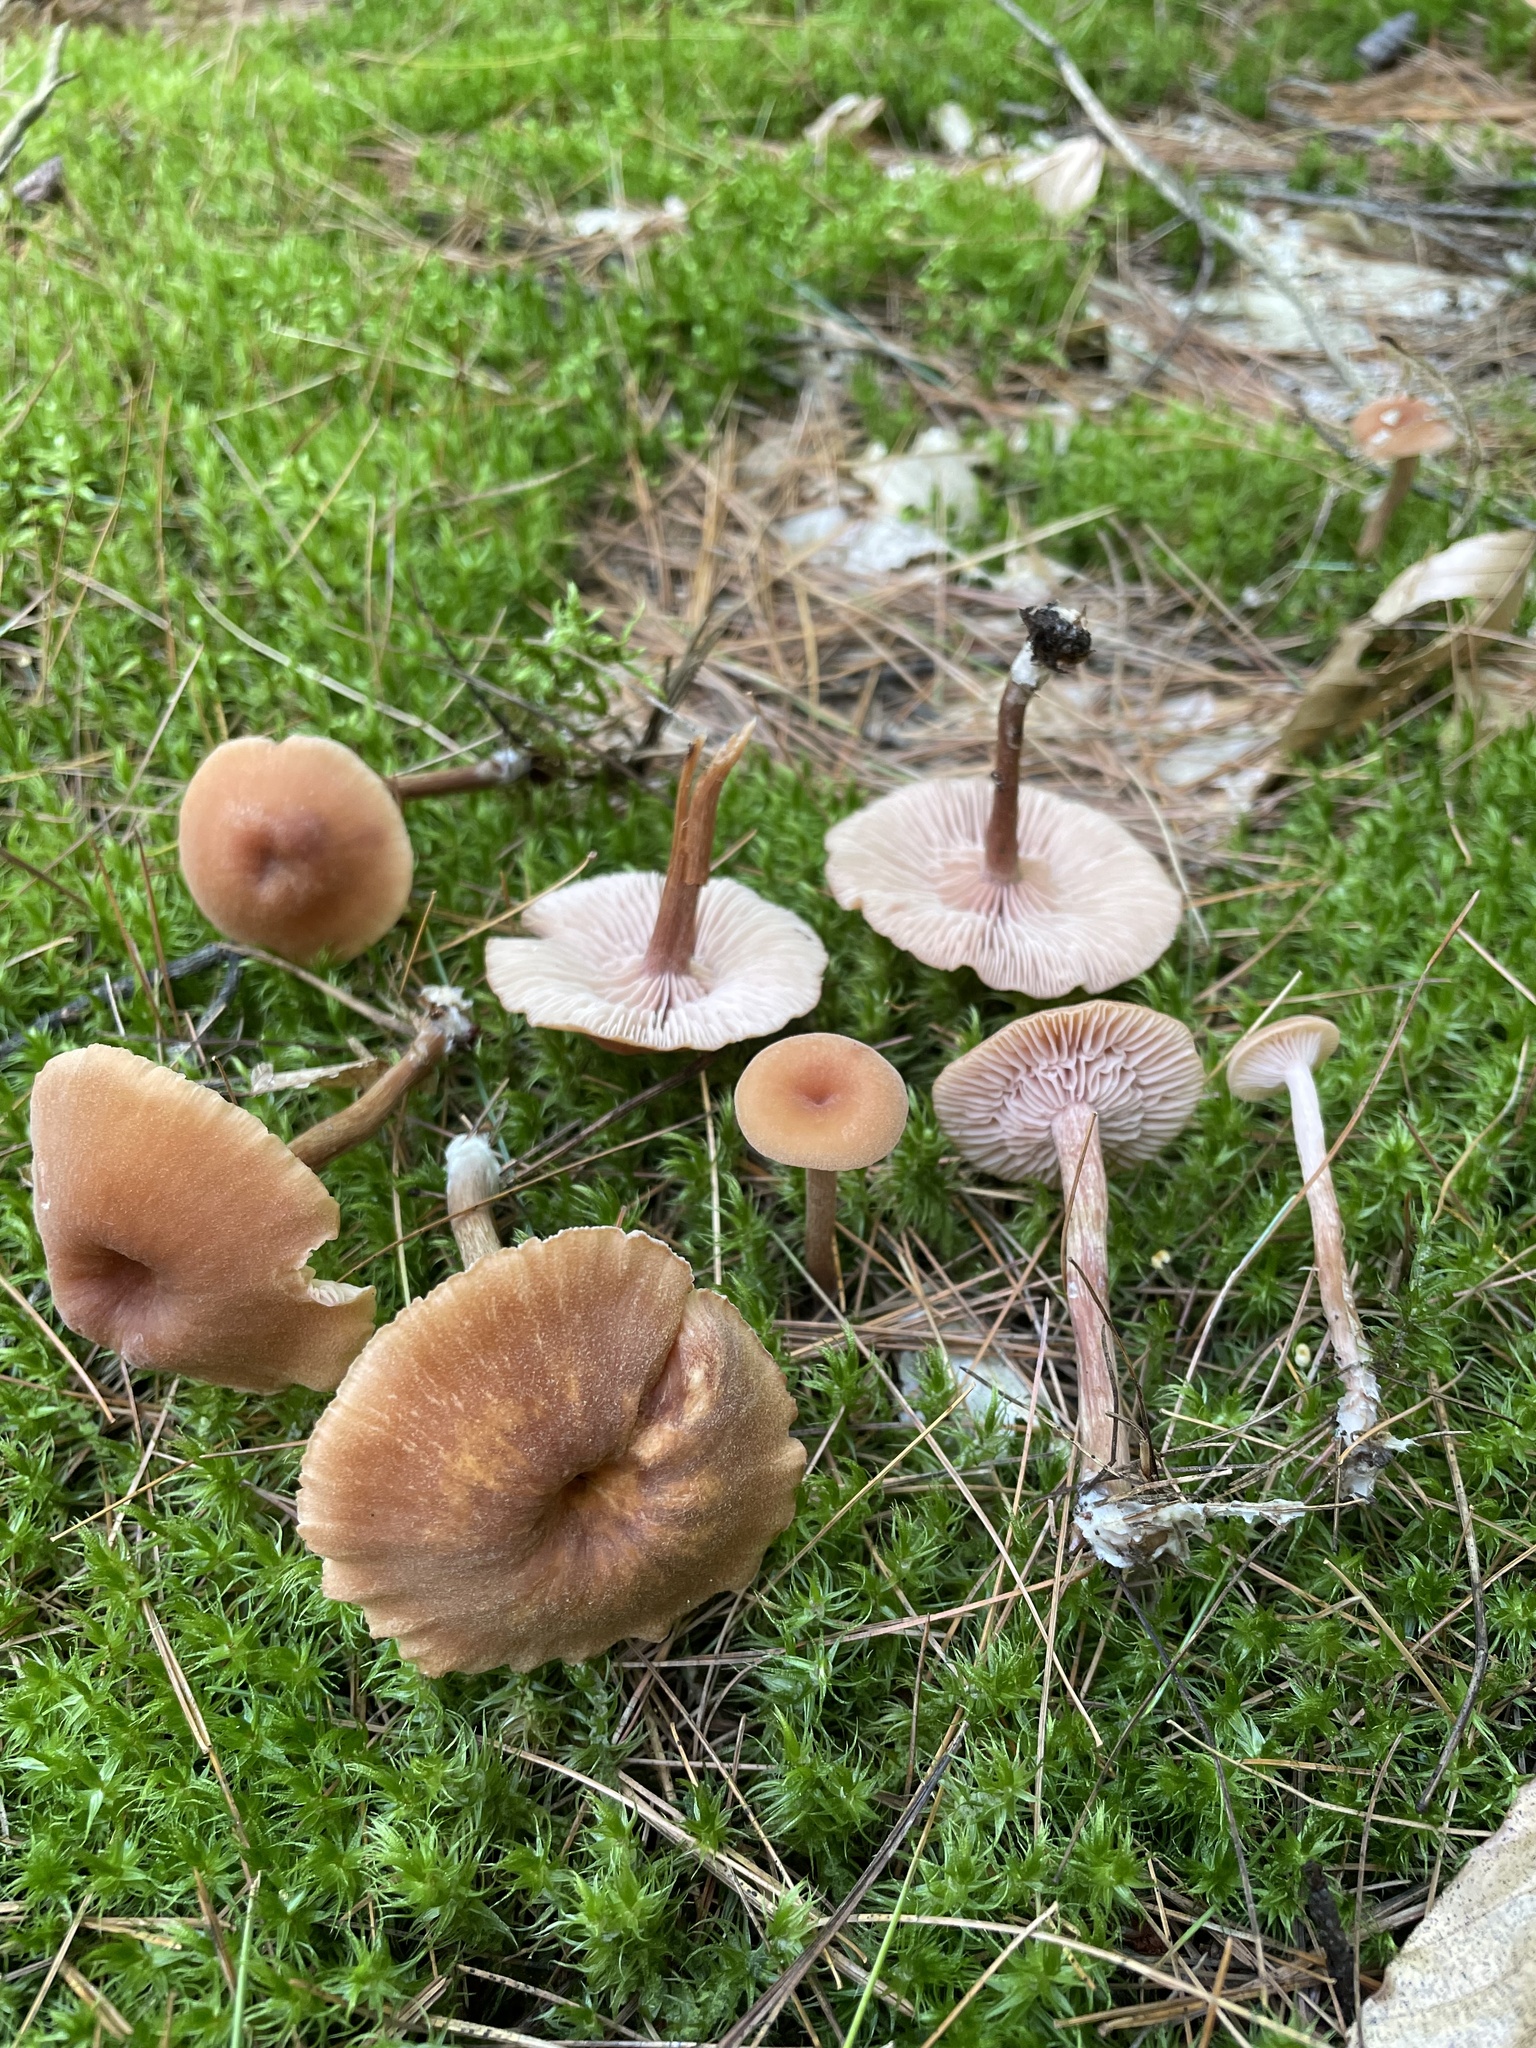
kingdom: Fungi
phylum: Basidiomycota
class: Agaricomycetes
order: Agaricales
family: Hydnangiaceae
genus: Laccaria
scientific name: Laccaria laccata
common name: Deceiver
